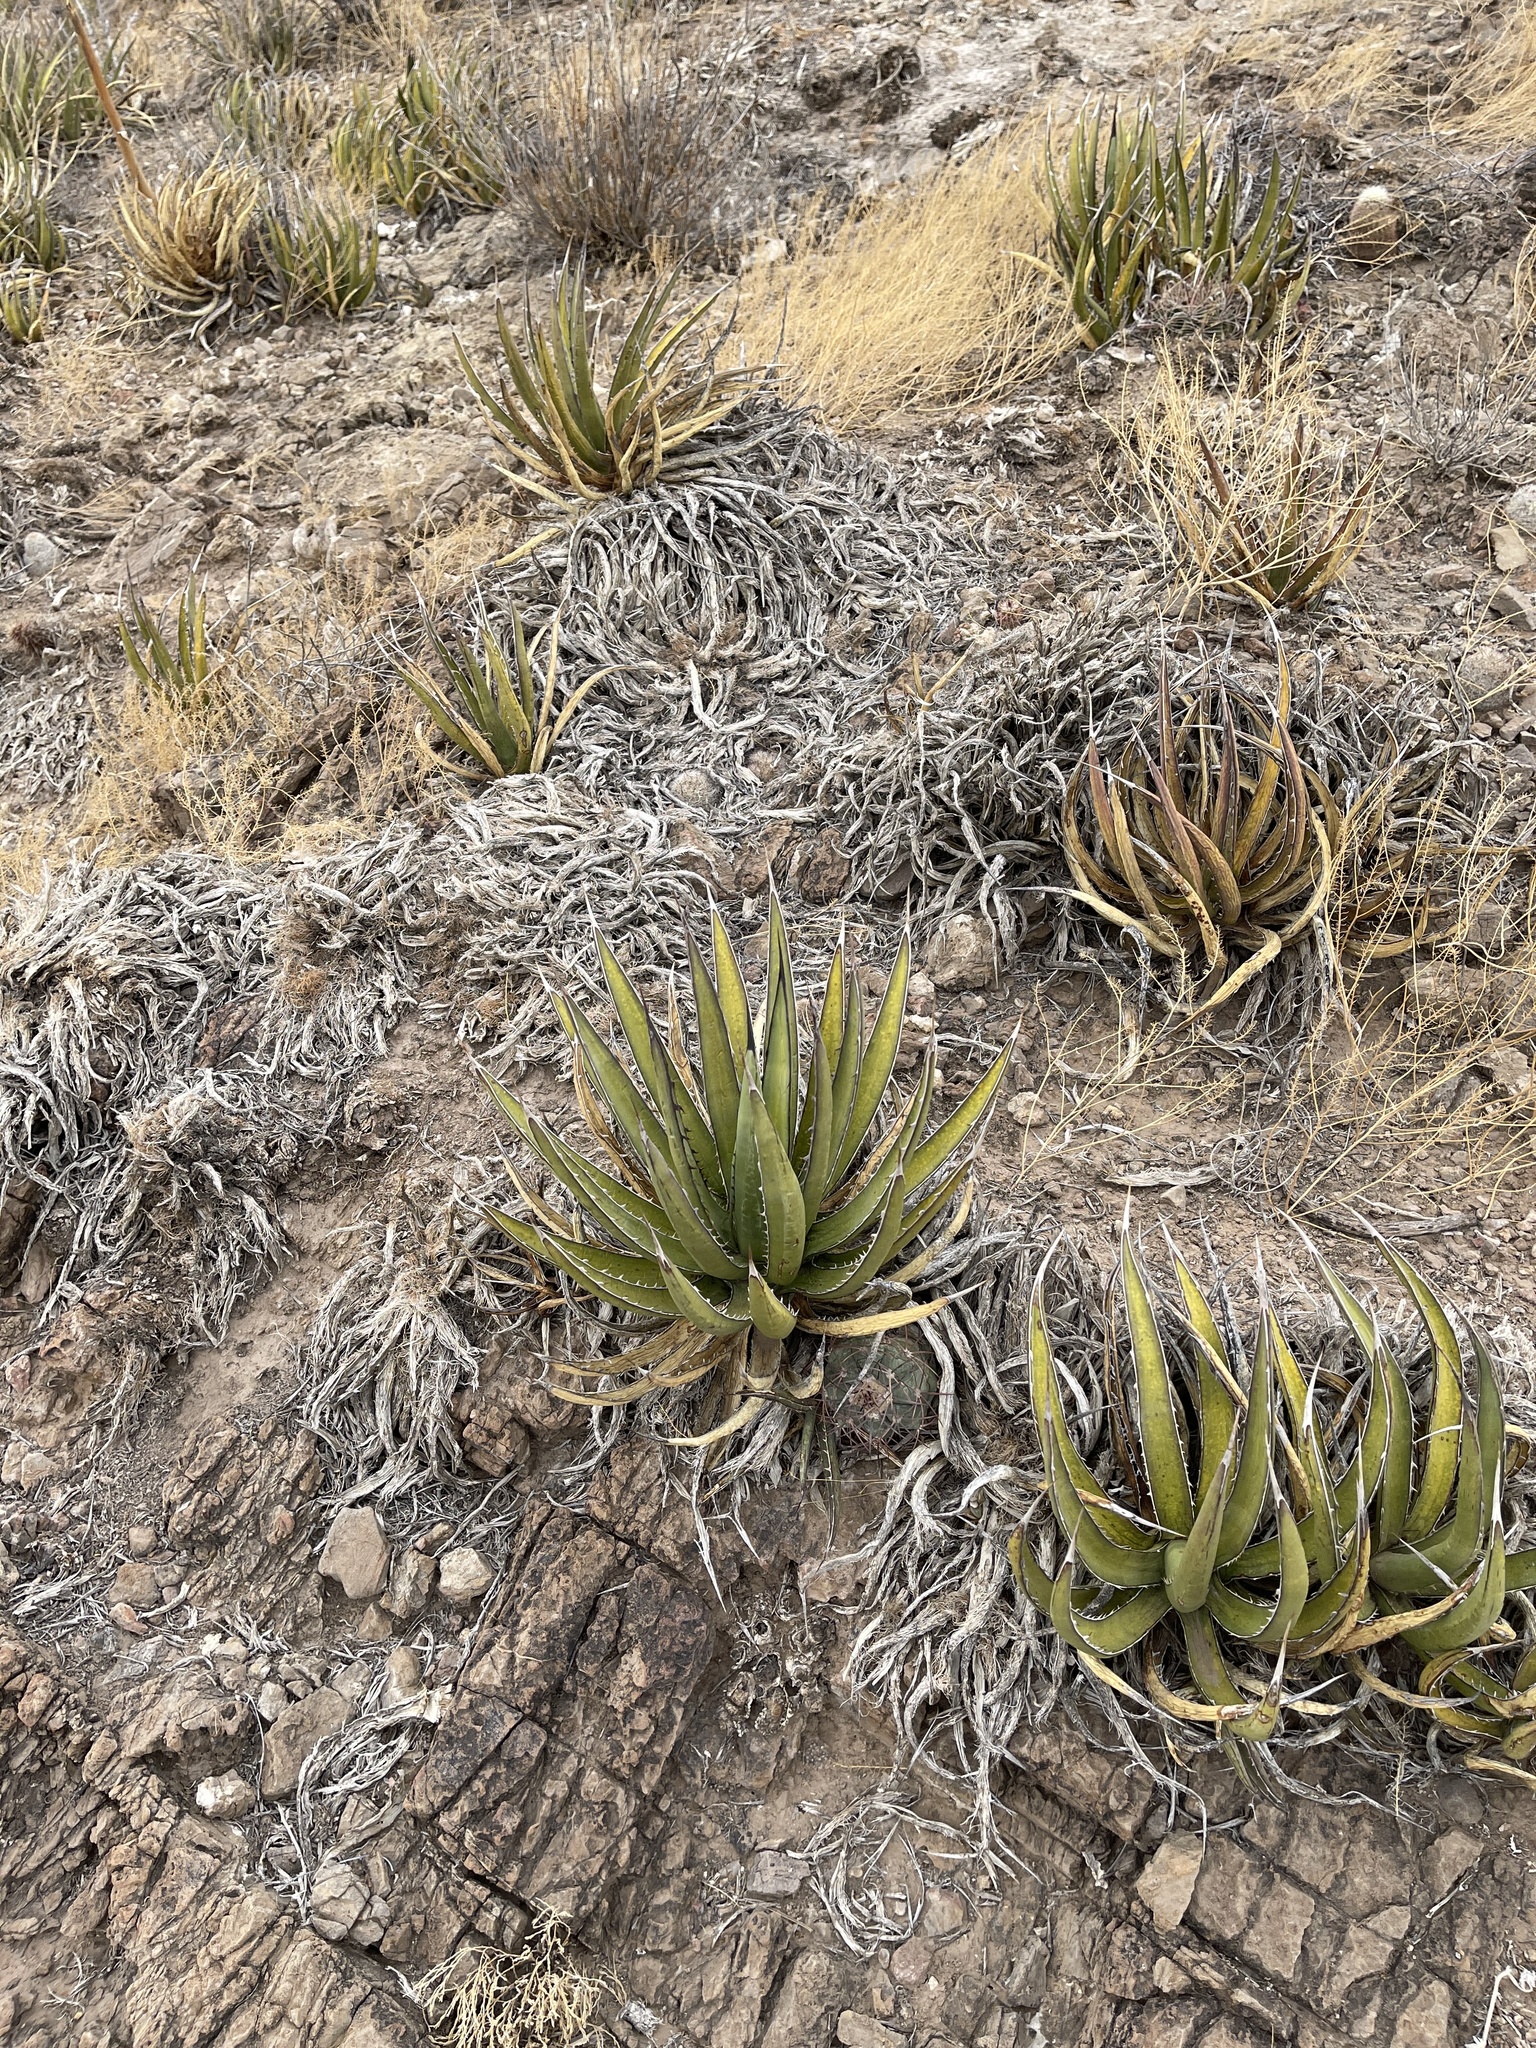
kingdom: Plantae
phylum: Tracheophyta
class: Liliopsida
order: Asparagales
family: Asparagaceae
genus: Agave
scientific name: Agave lechuguilla
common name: Lecheguilla agave
